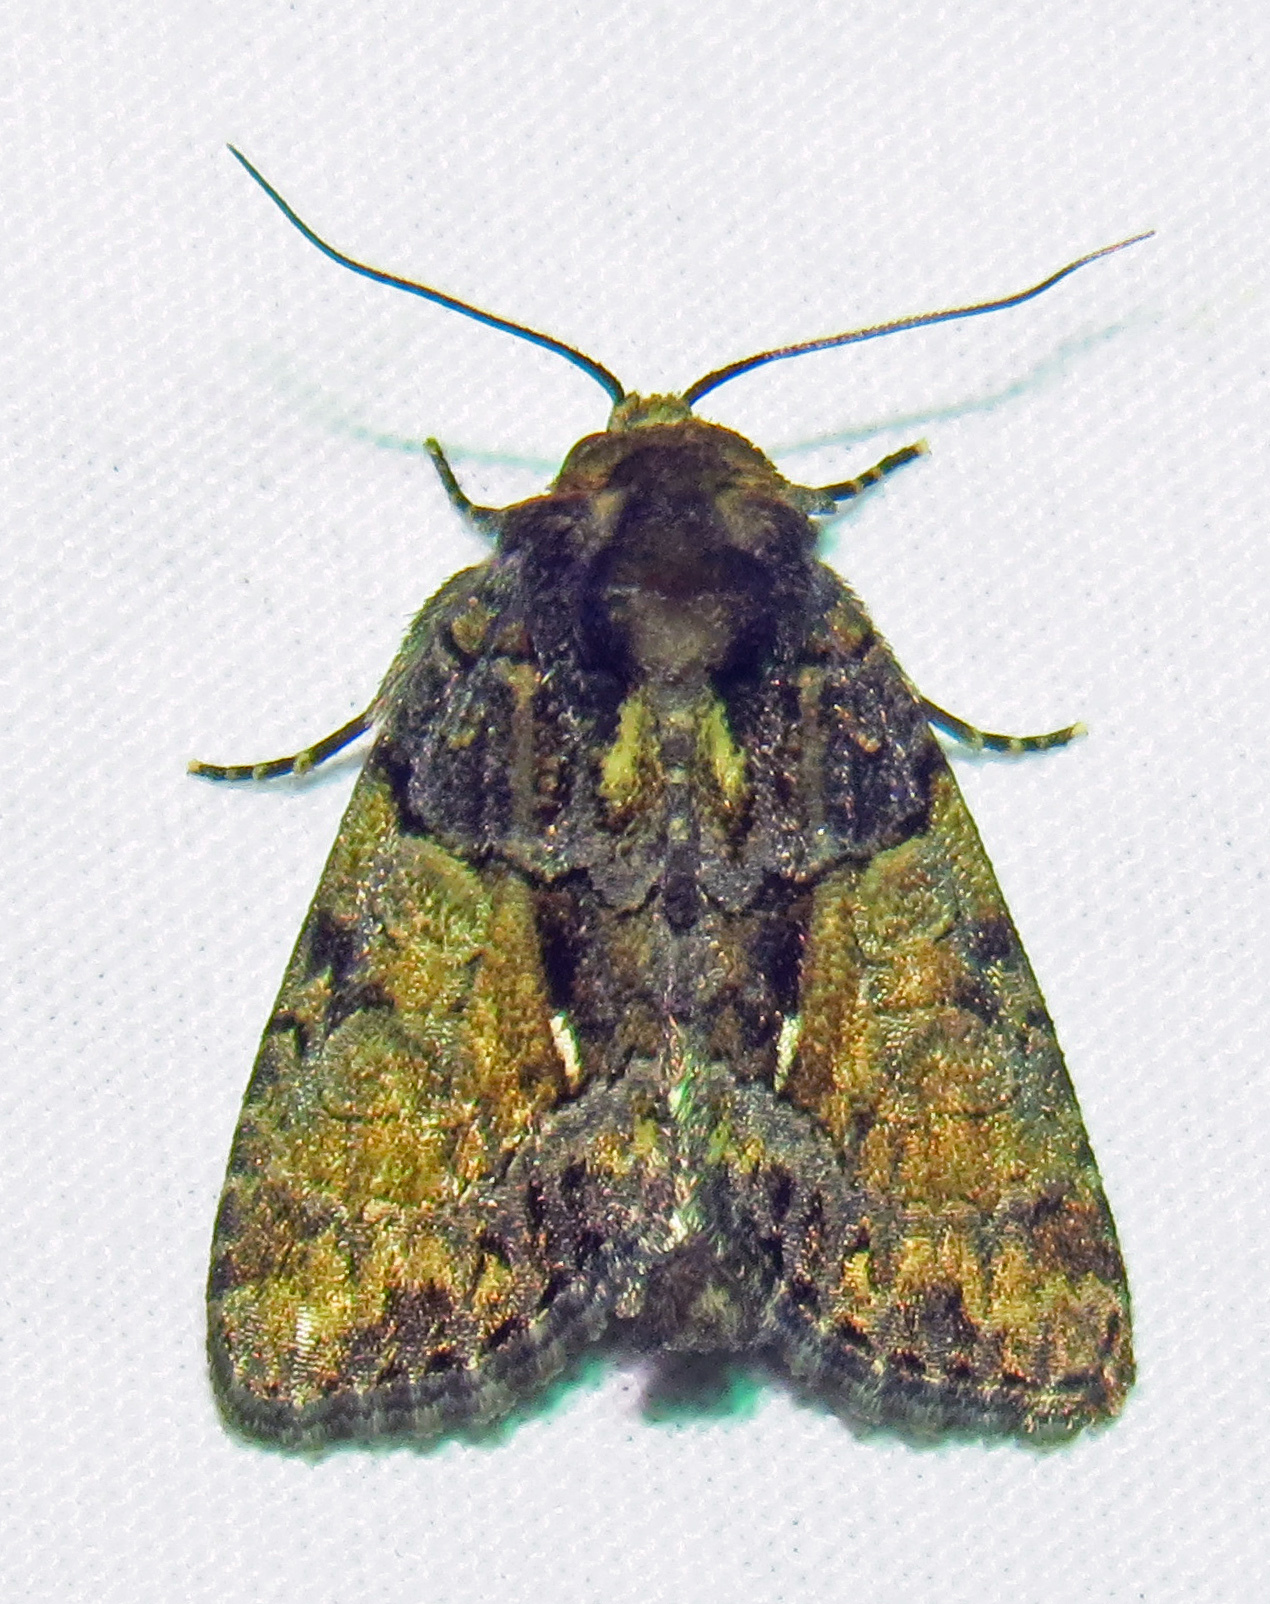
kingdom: Animalia
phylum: Arthropoda
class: Insecta
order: Lepidoptera
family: Noctuidae
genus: Chytonix
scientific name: Chytonix palliatricula
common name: Cloaked marvel
